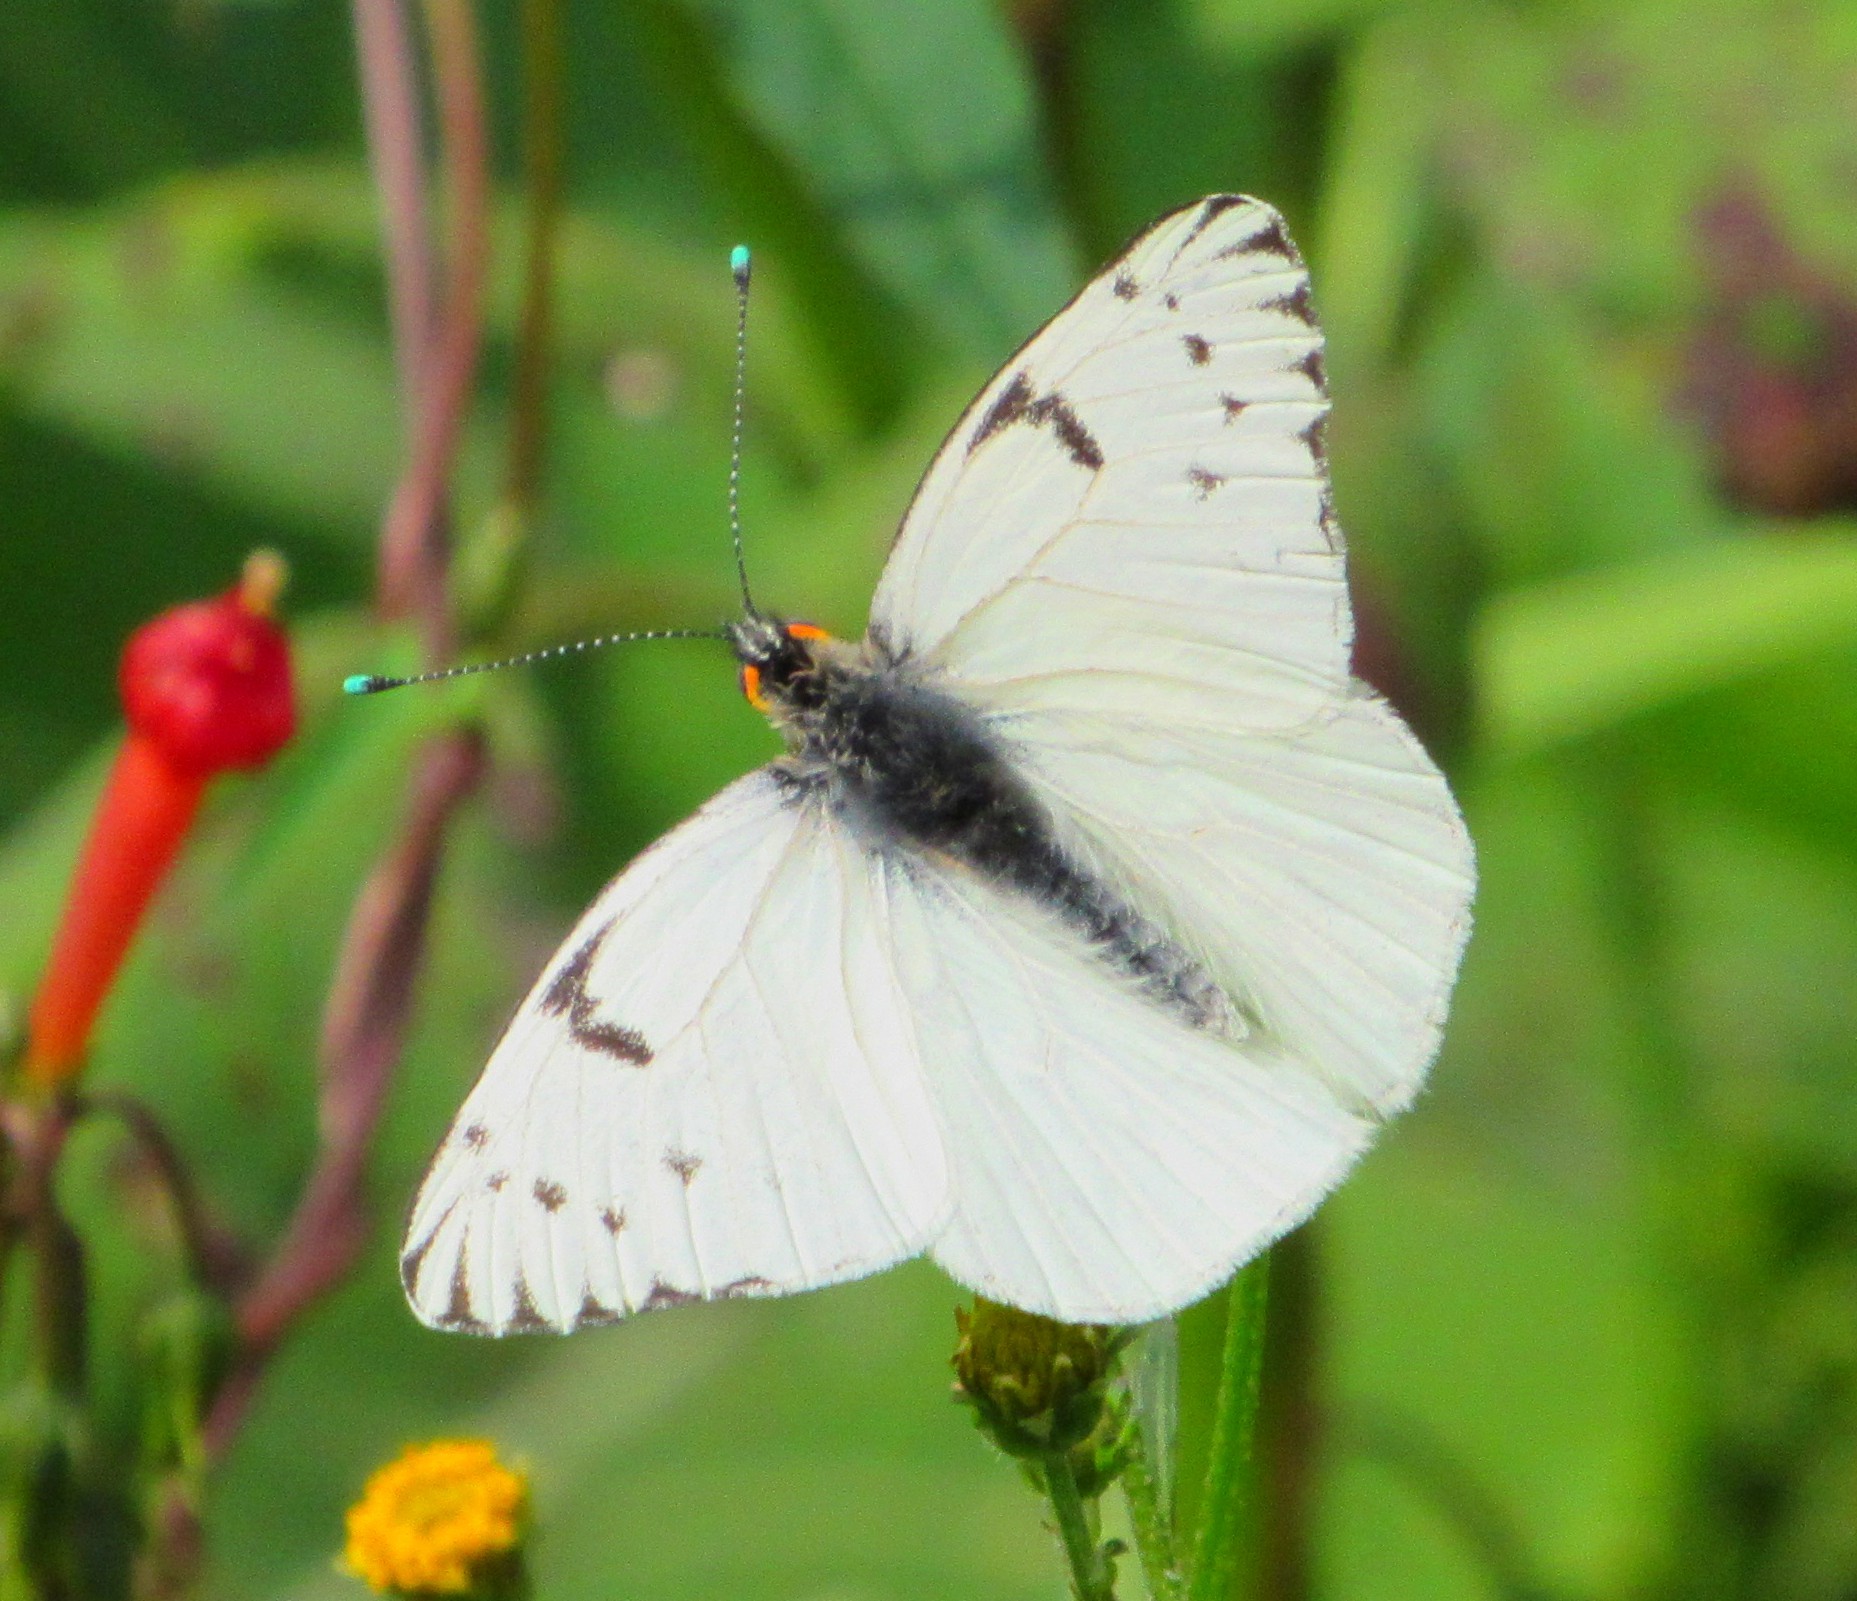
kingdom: Animalia
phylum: Arthropoda
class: Insecta
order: Lepidoptera
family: Pieridae
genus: Tatochila
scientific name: Tatochila autodice
